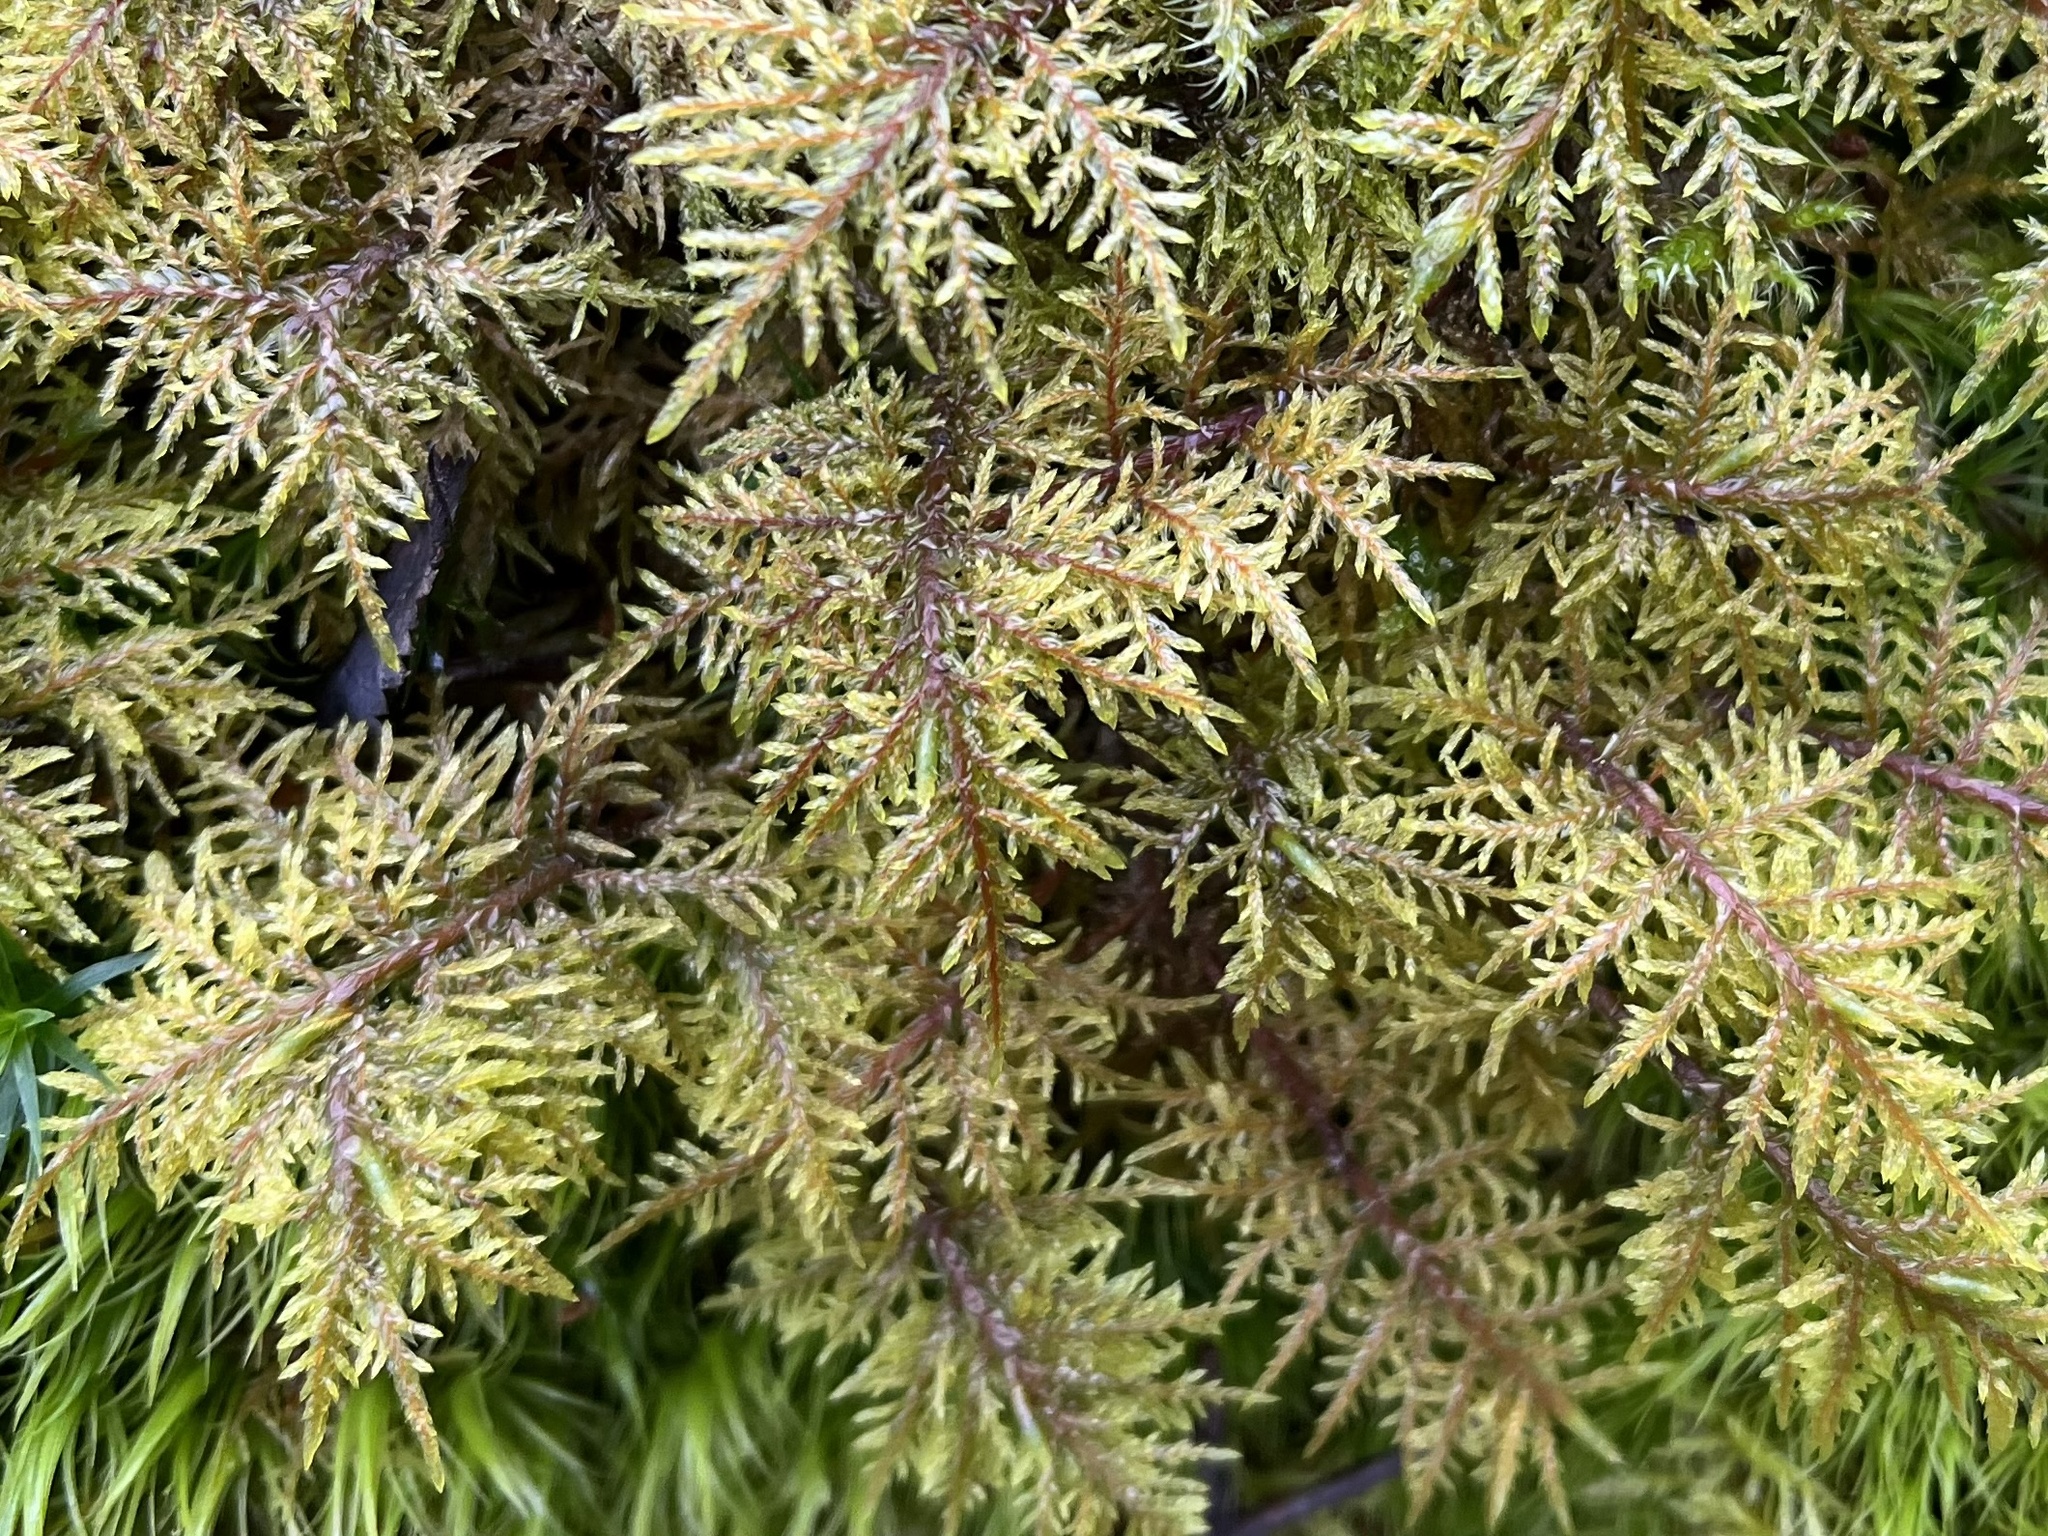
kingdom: Plantae
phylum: Bryophyta
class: Bryopsida
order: Hypnales
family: Hylocomiaceae
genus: Hylocomium
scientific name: Hylocomium splendens
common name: Stairstep moss
